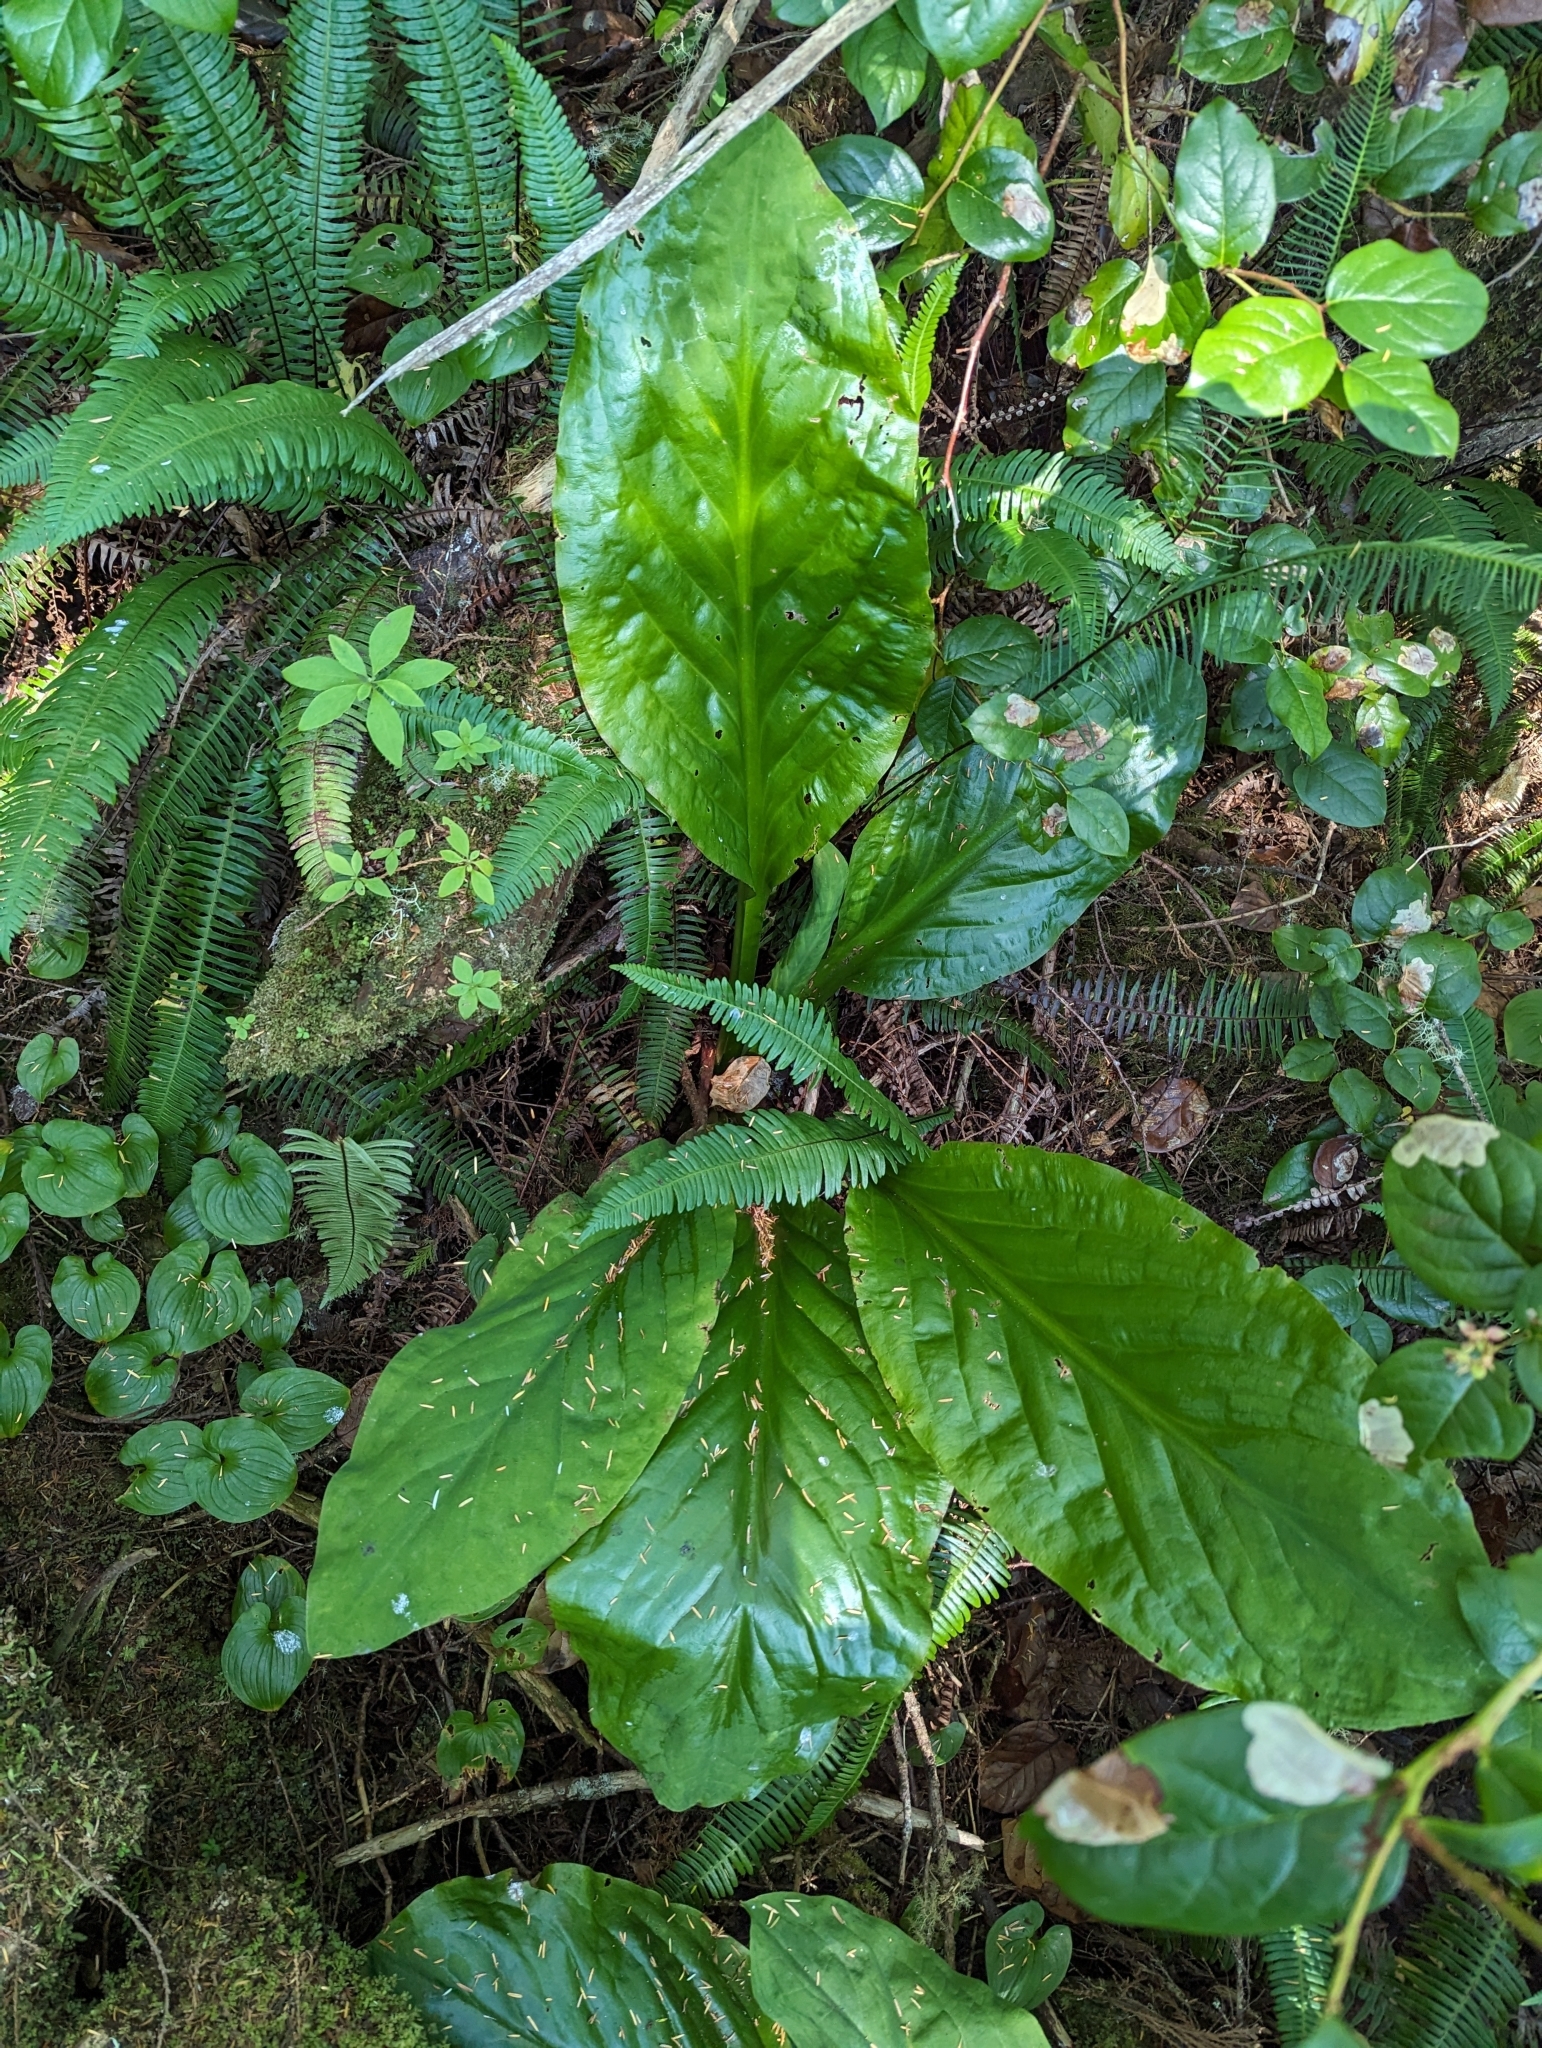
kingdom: Plantae
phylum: Tracheophyta
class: Liliopsida
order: Alismatales
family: Araceae
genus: Lysichiton
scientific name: Lysichiton americanus
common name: American skunk cabbage
